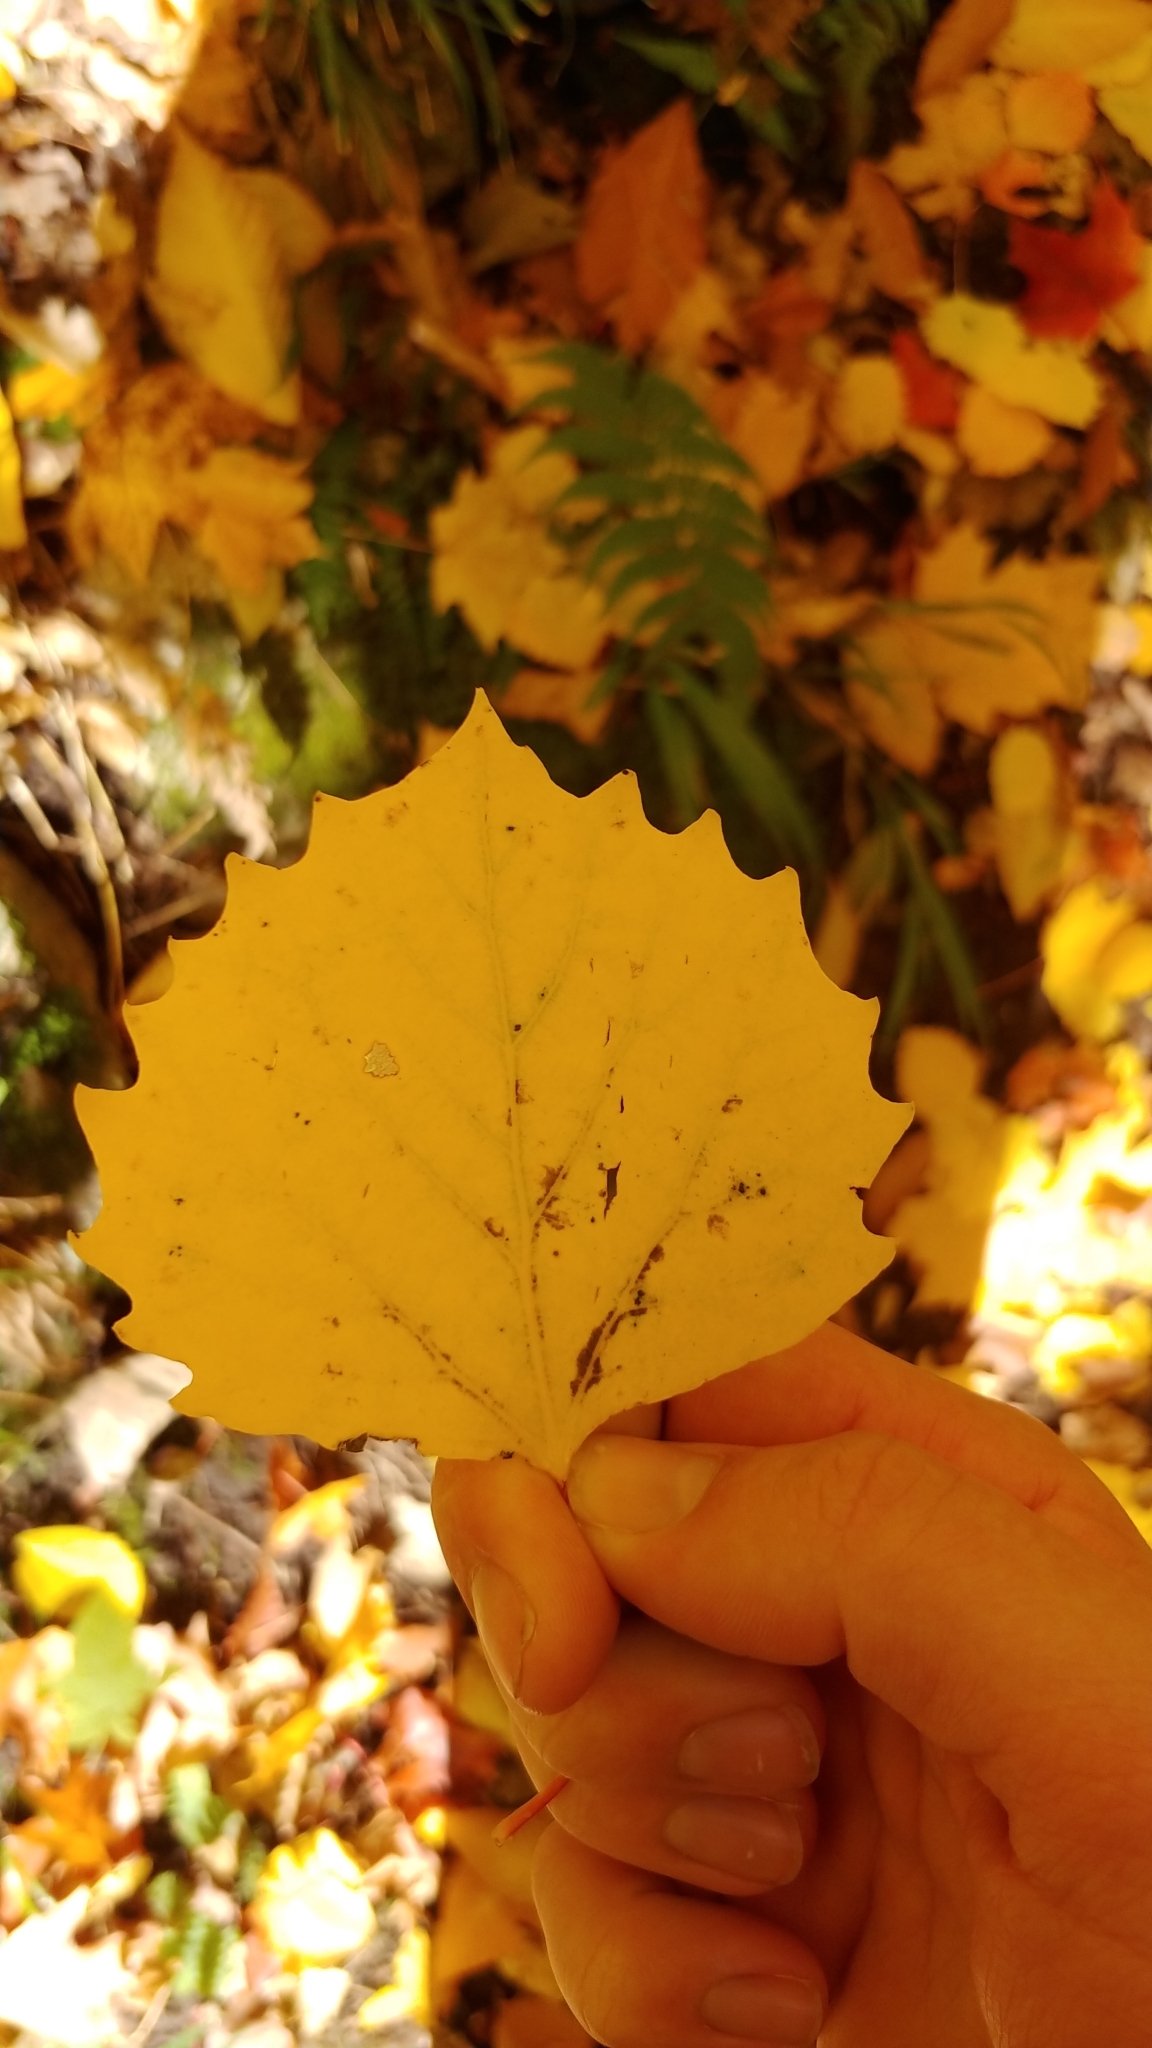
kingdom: Plantae
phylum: Tracheophyta
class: Magnoliopsida
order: Malpighiales
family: Salicaceae
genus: Populus
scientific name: Populus grandidentata
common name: Bigtooth aspen
